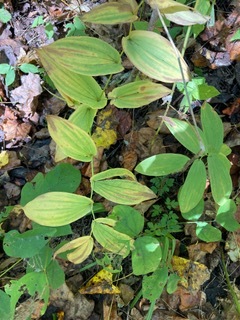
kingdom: Plantae
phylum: Tracheophyta
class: Liliopsida
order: Liliales
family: Colchicaceae
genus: Uvularia
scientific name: Uvularia grandiflora
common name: Bellwort
